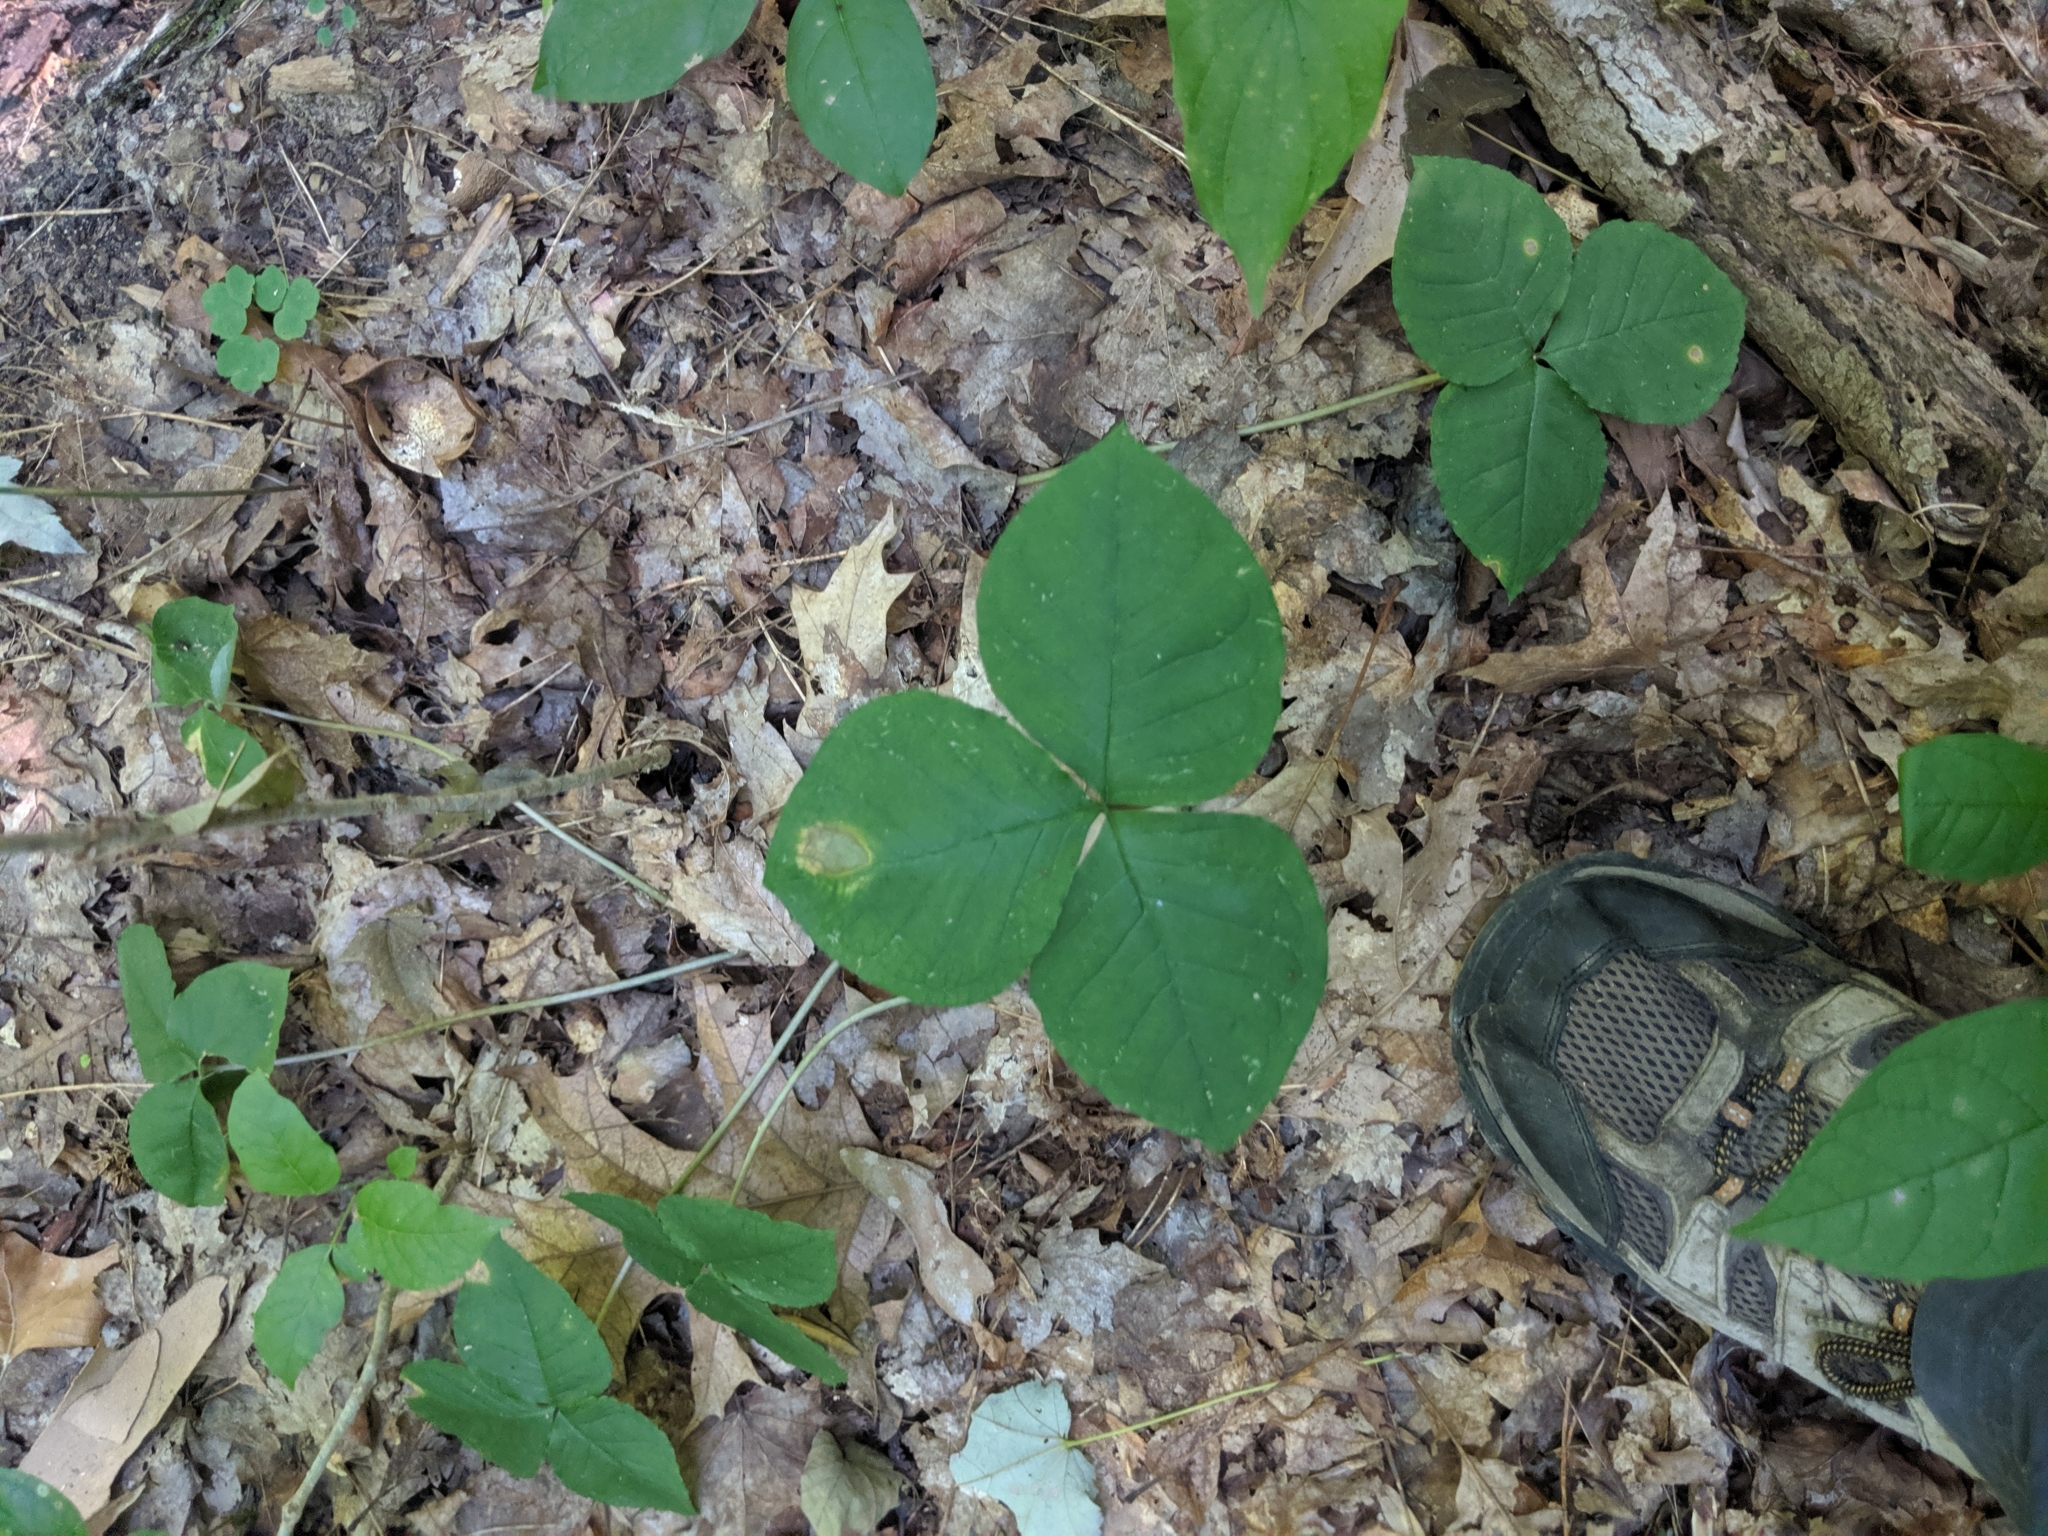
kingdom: Plantae
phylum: Tracheophyta
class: Liliopsida
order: Alismatales
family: Araceae
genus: Arisaema
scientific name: Arisaema triphyllum
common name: Jack-in-the-pulpit
